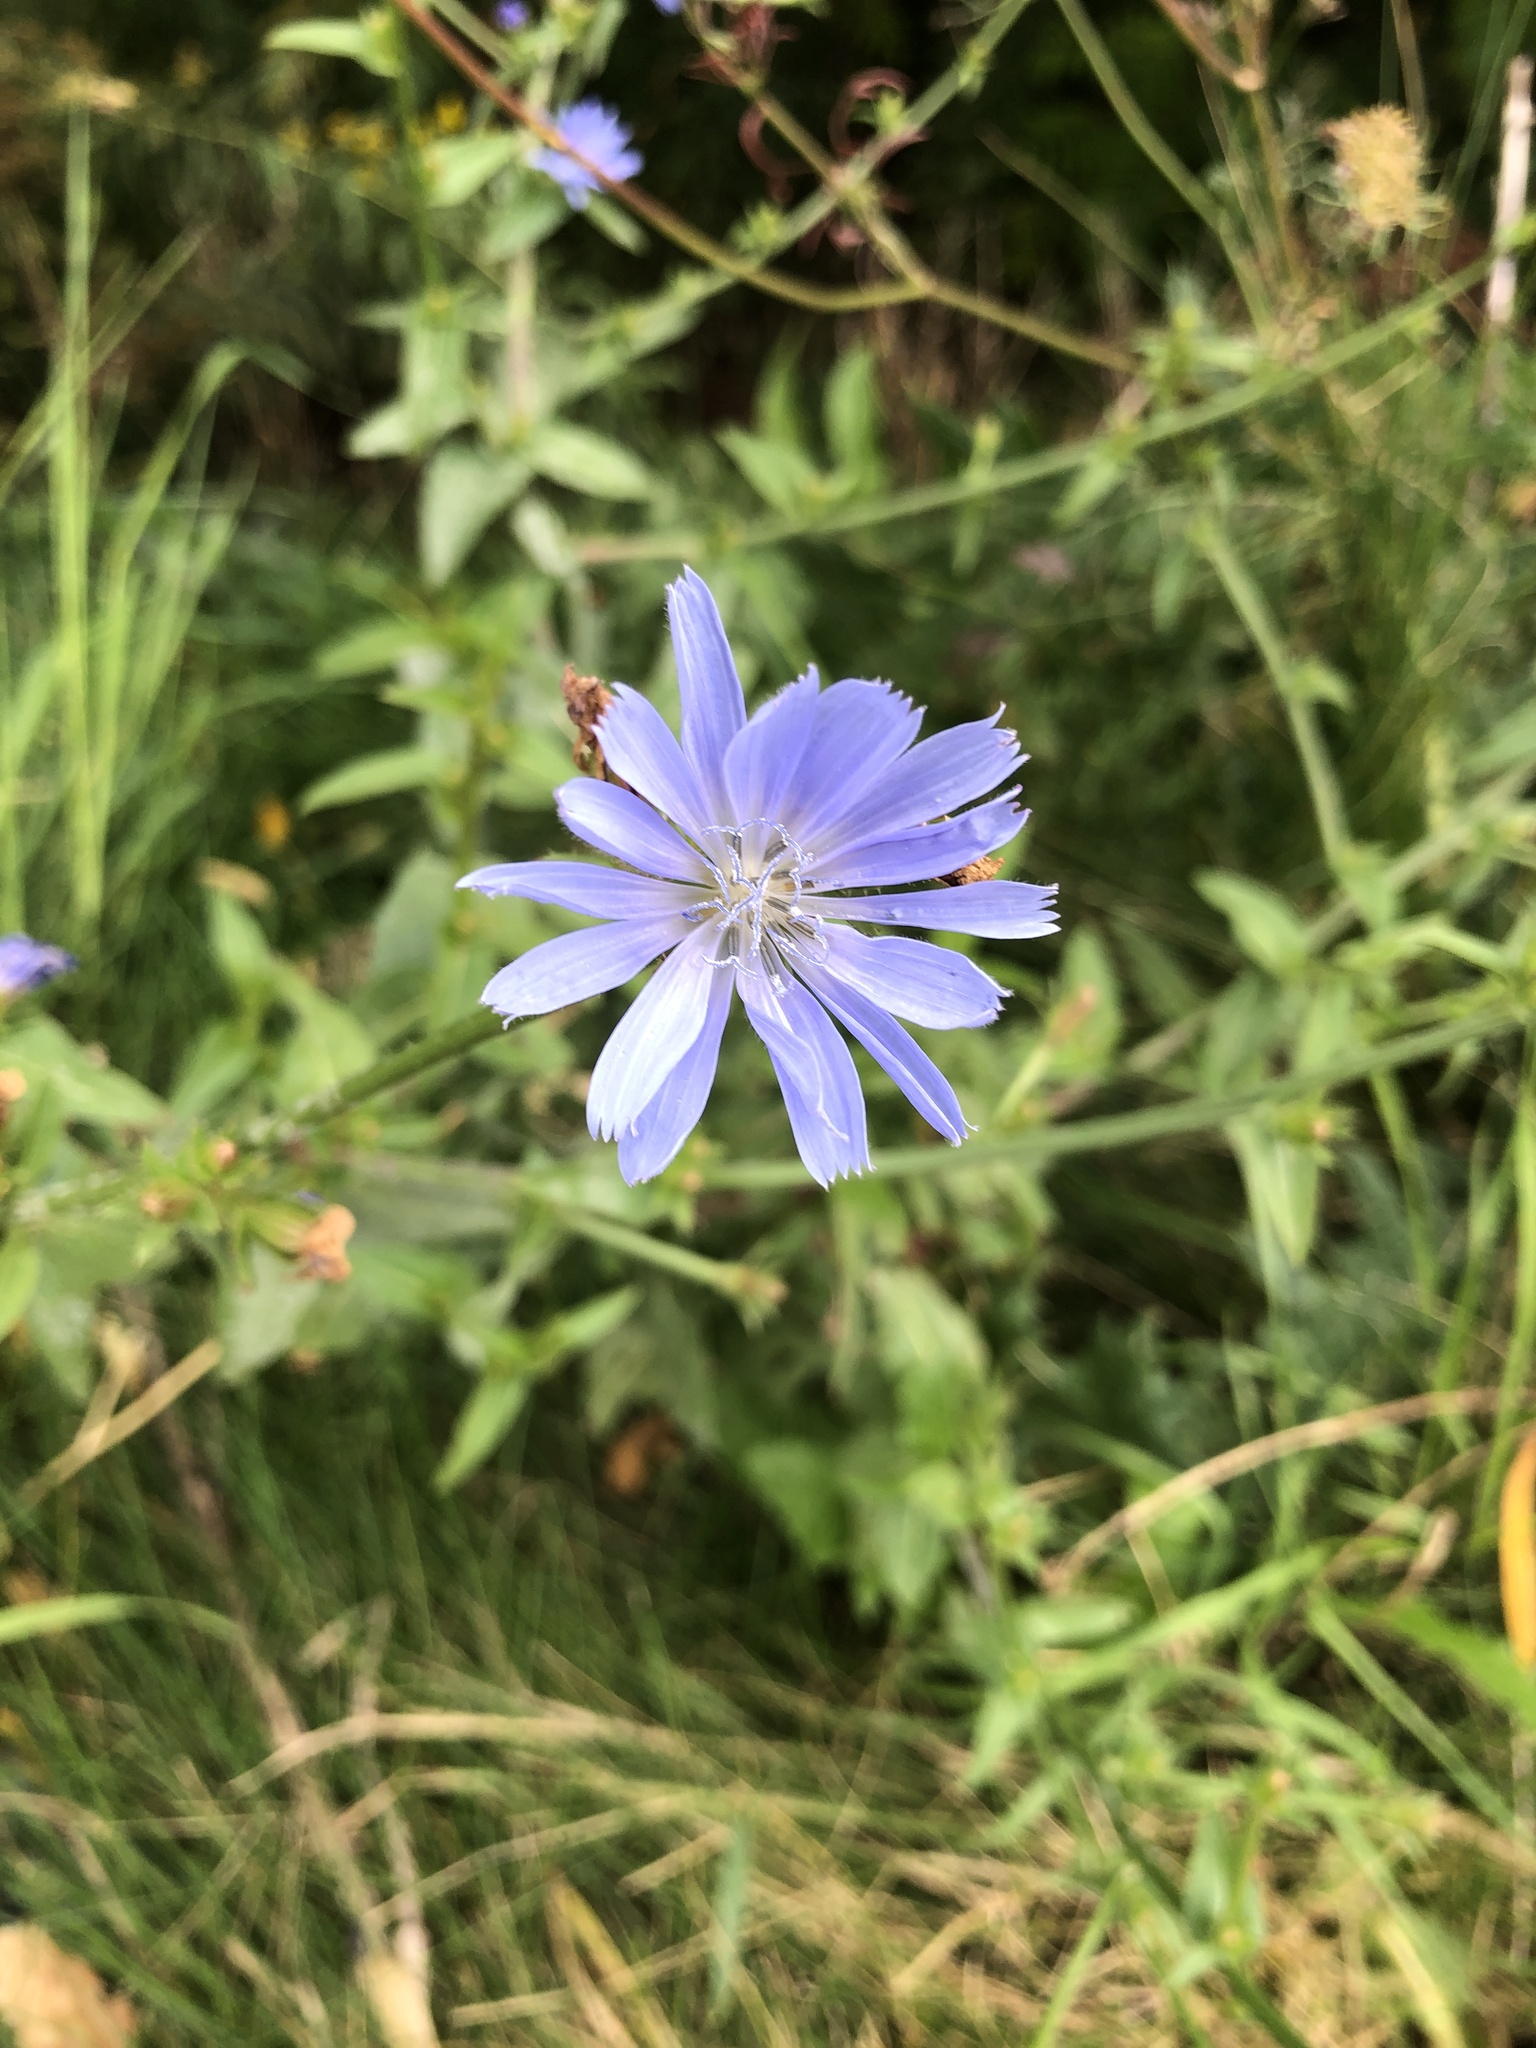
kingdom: Plantae
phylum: Tracheophyta
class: Magnoliopsida
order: Asterales
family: Asteraceae
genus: Cichorium
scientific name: Cichorium intybus
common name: Chicory
